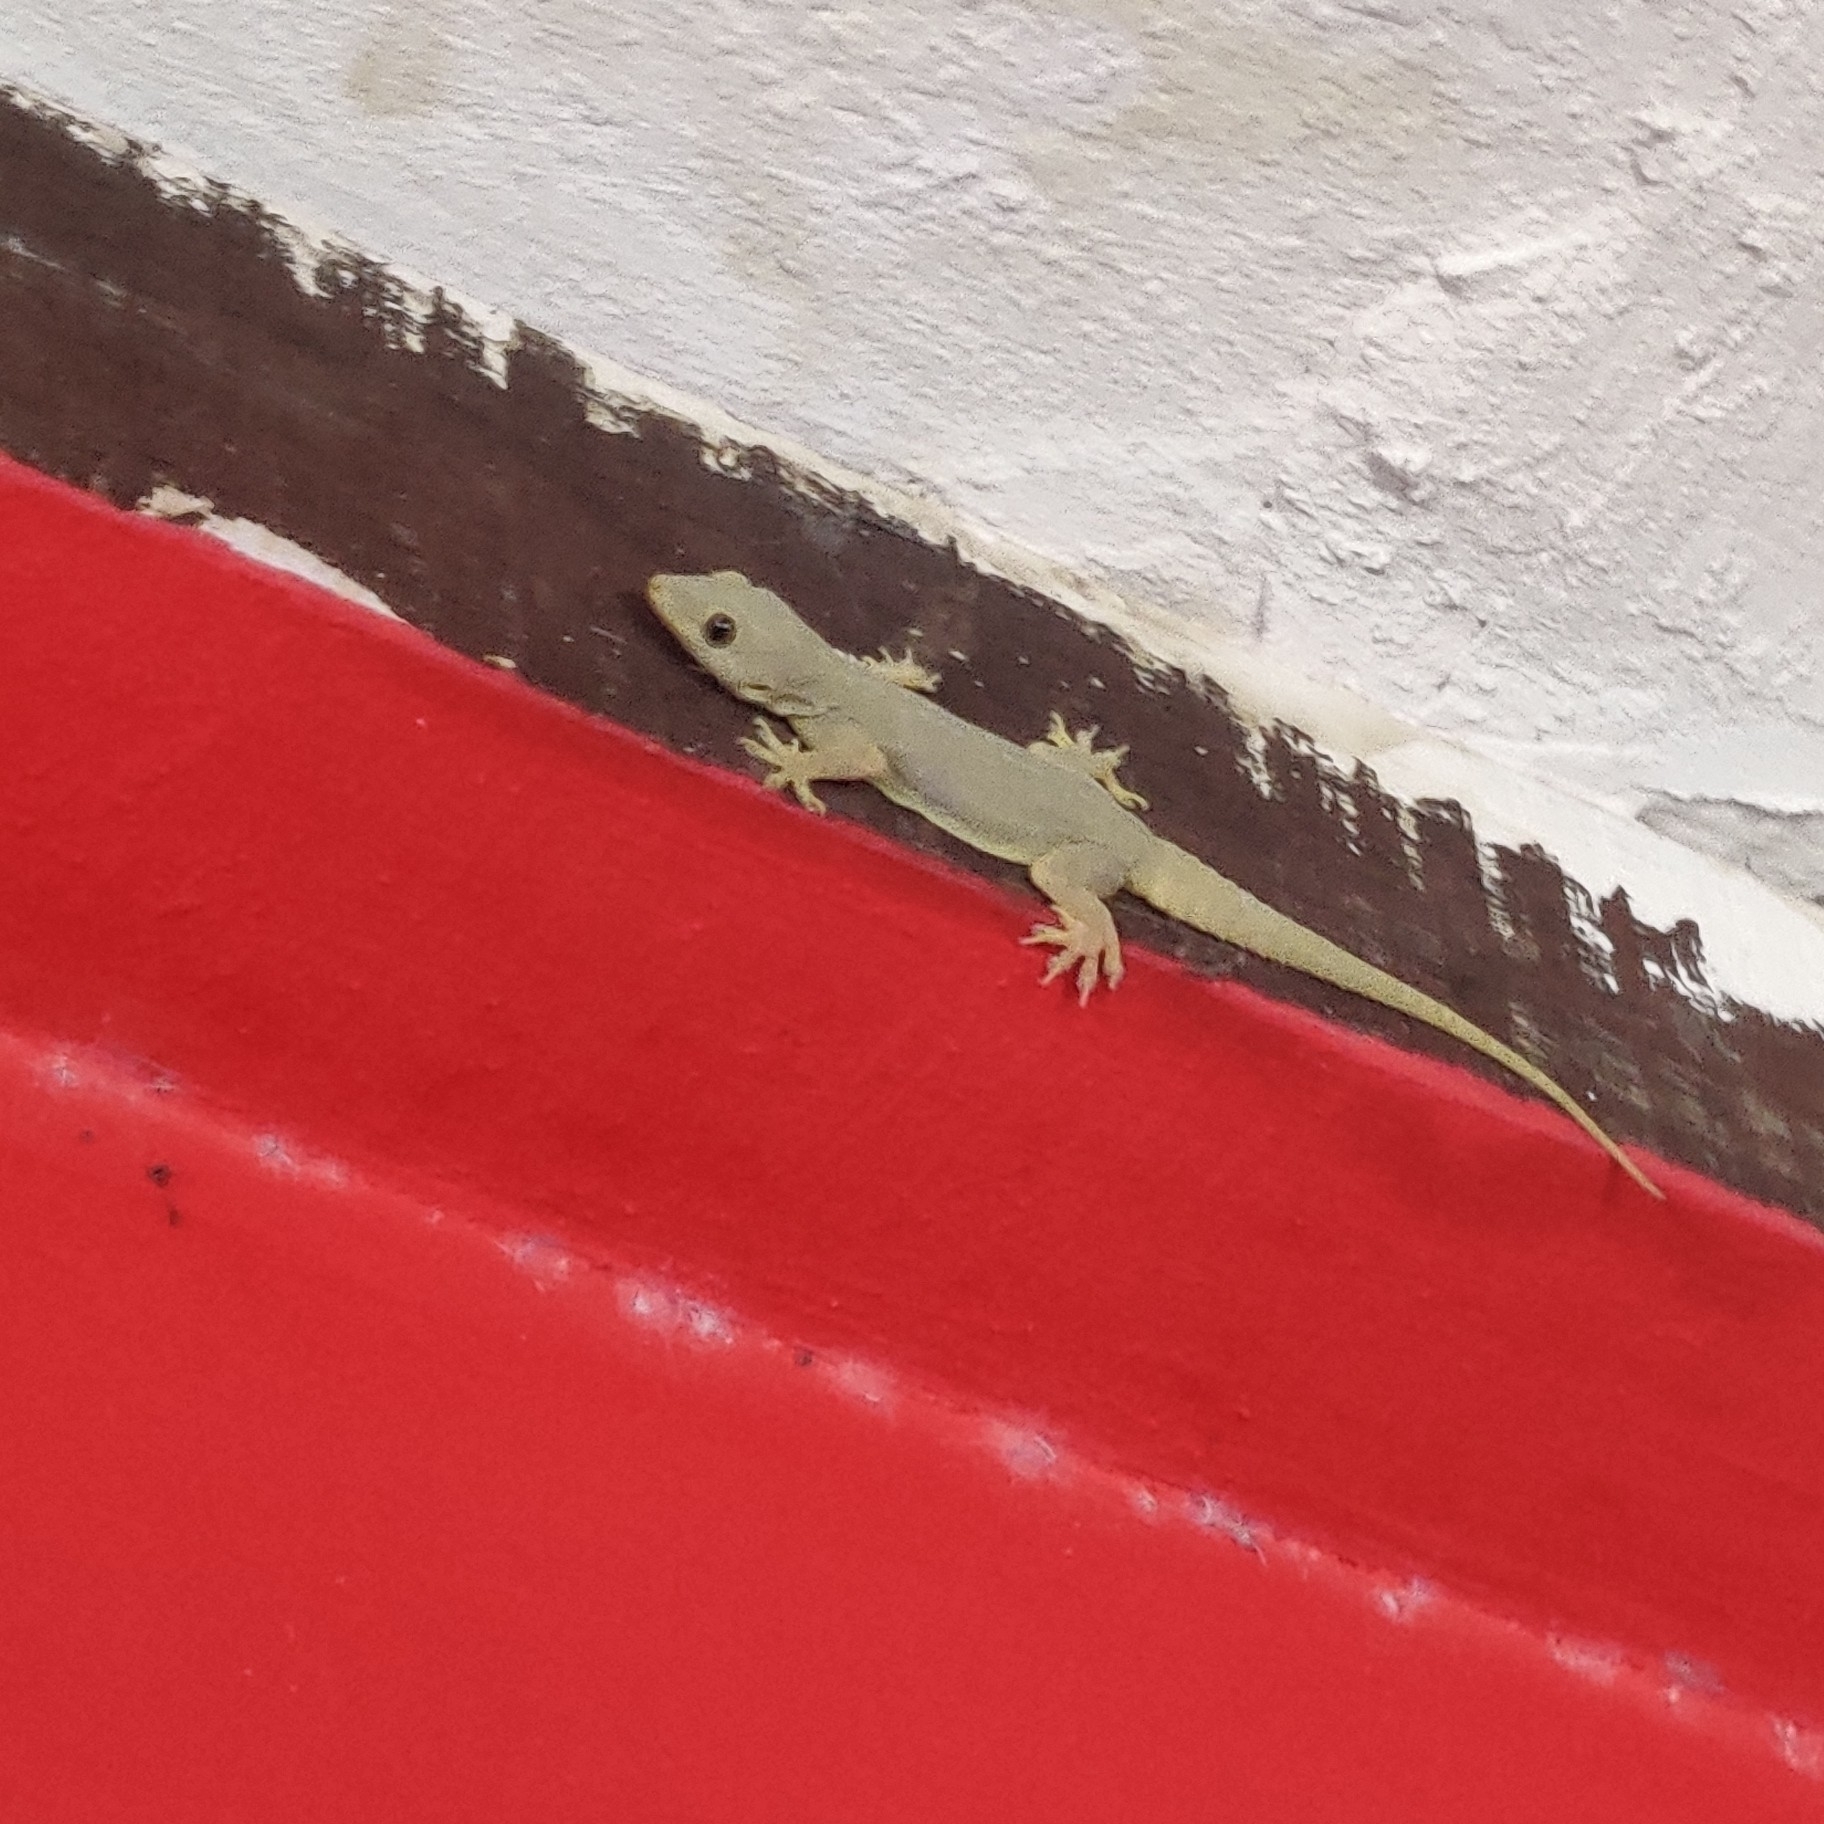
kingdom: Animalia
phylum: Chordata
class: Squamata
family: Gekkonidae
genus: Hemidactylus
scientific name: Hemidactylus flaviviridis
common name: Northern house gecko
